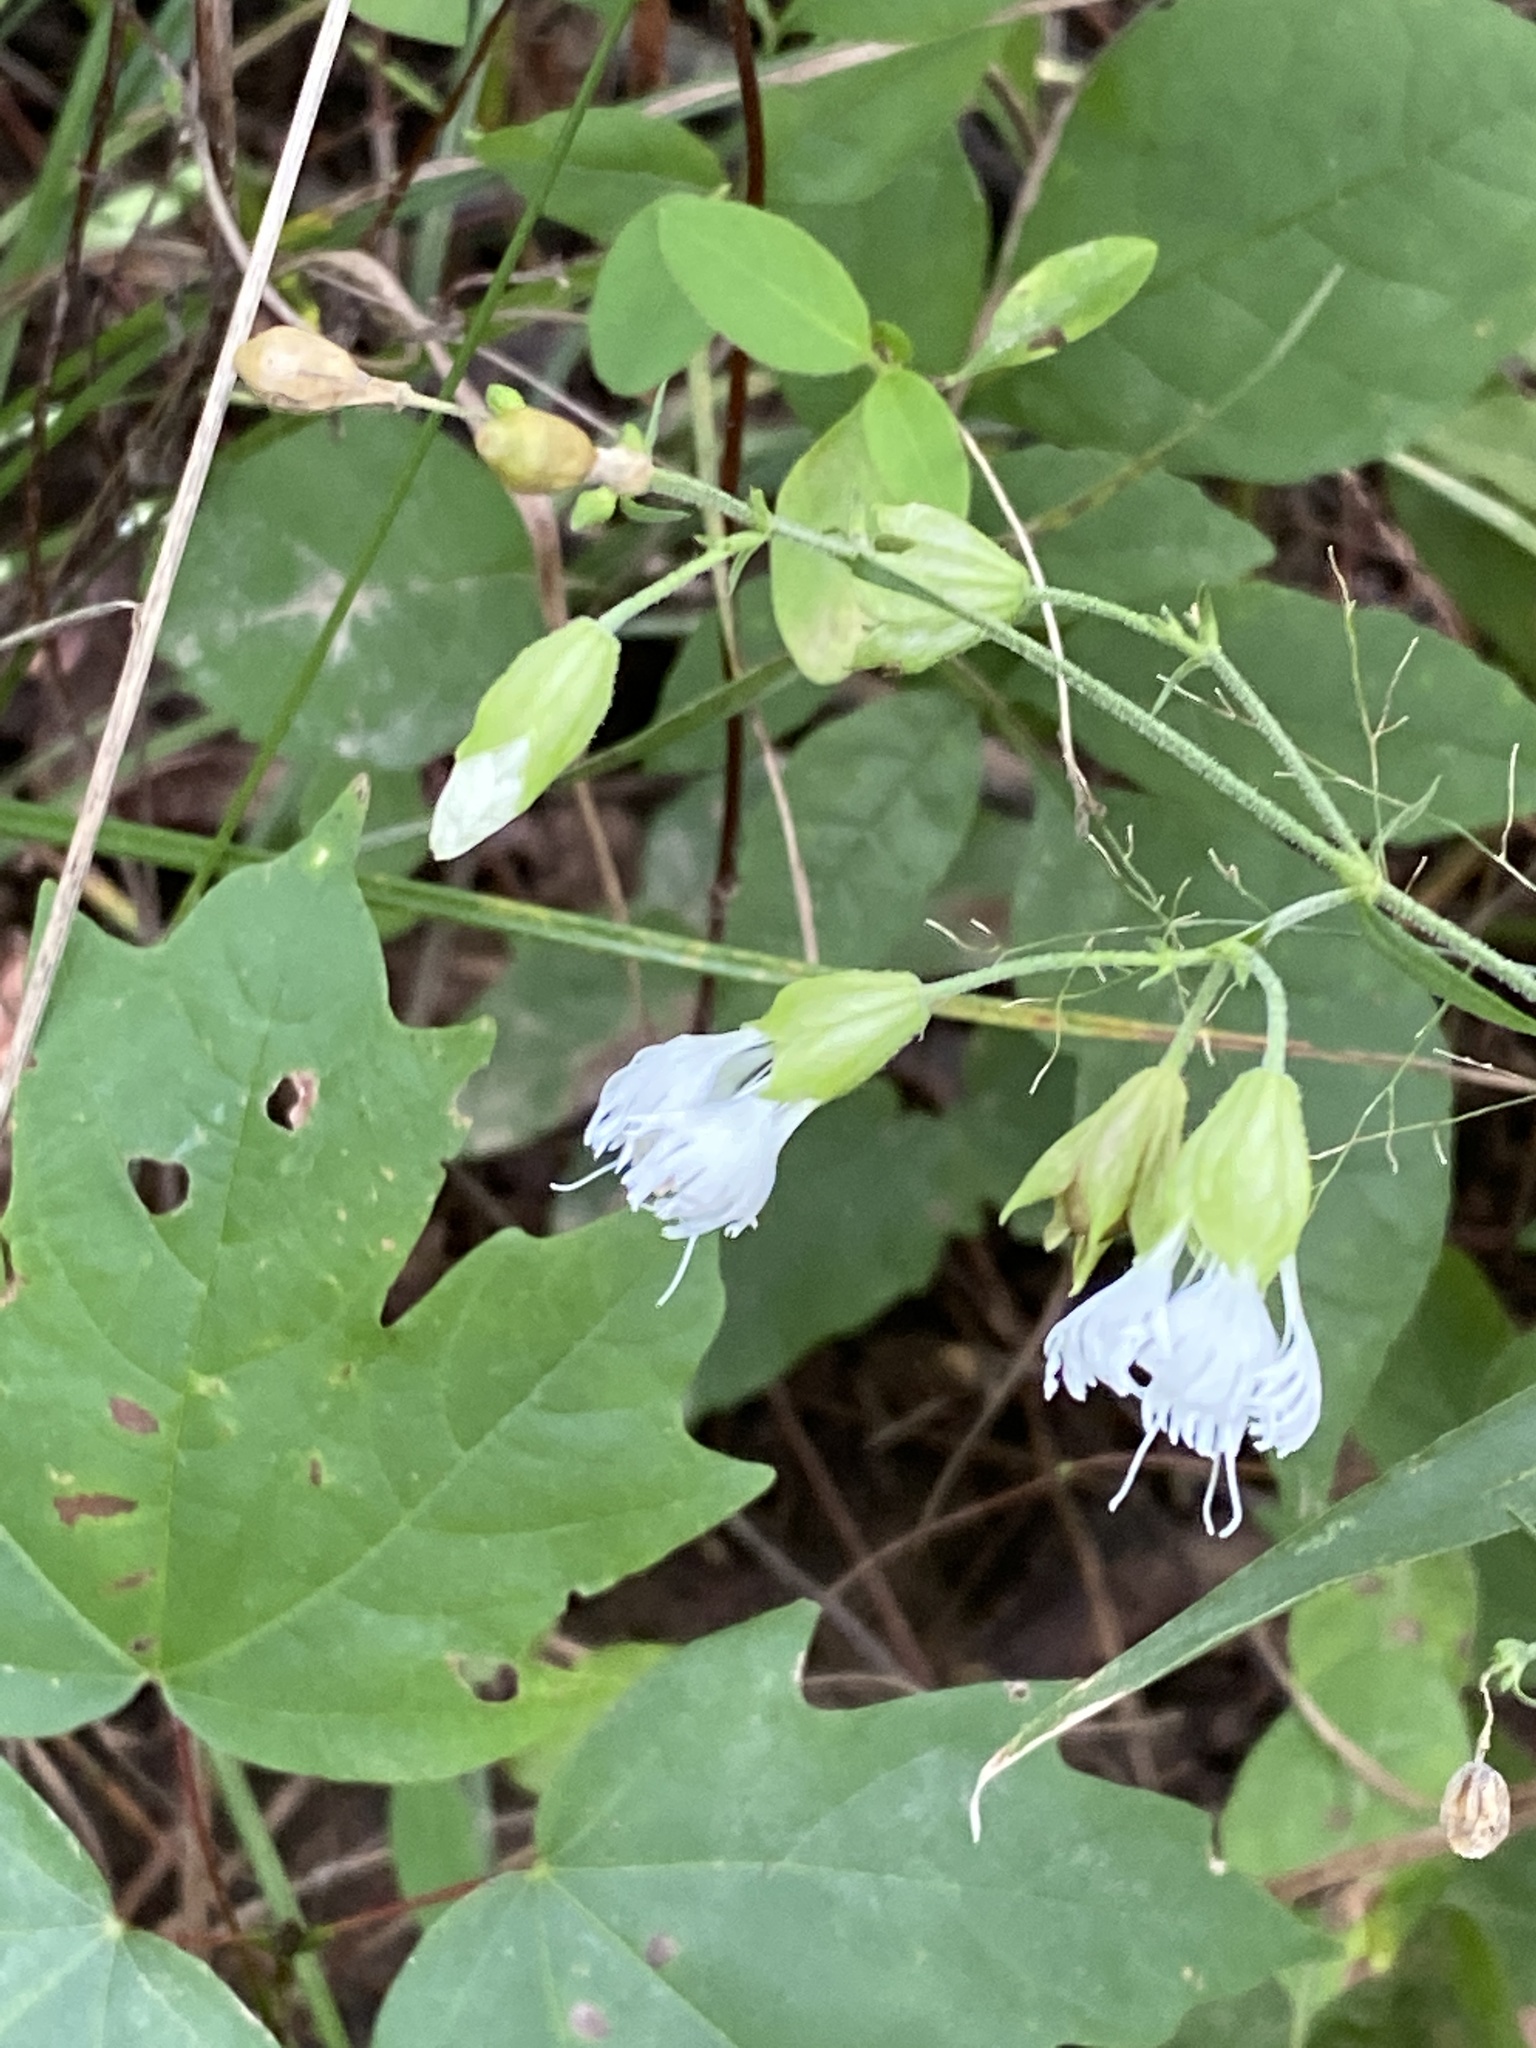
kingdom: Plantae
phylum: Tracheophyta
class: Magnoliopsida
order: Caryophyllales
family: Caryophyllaceae
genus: Silene
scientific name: Silene stellata
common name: Starry campion
